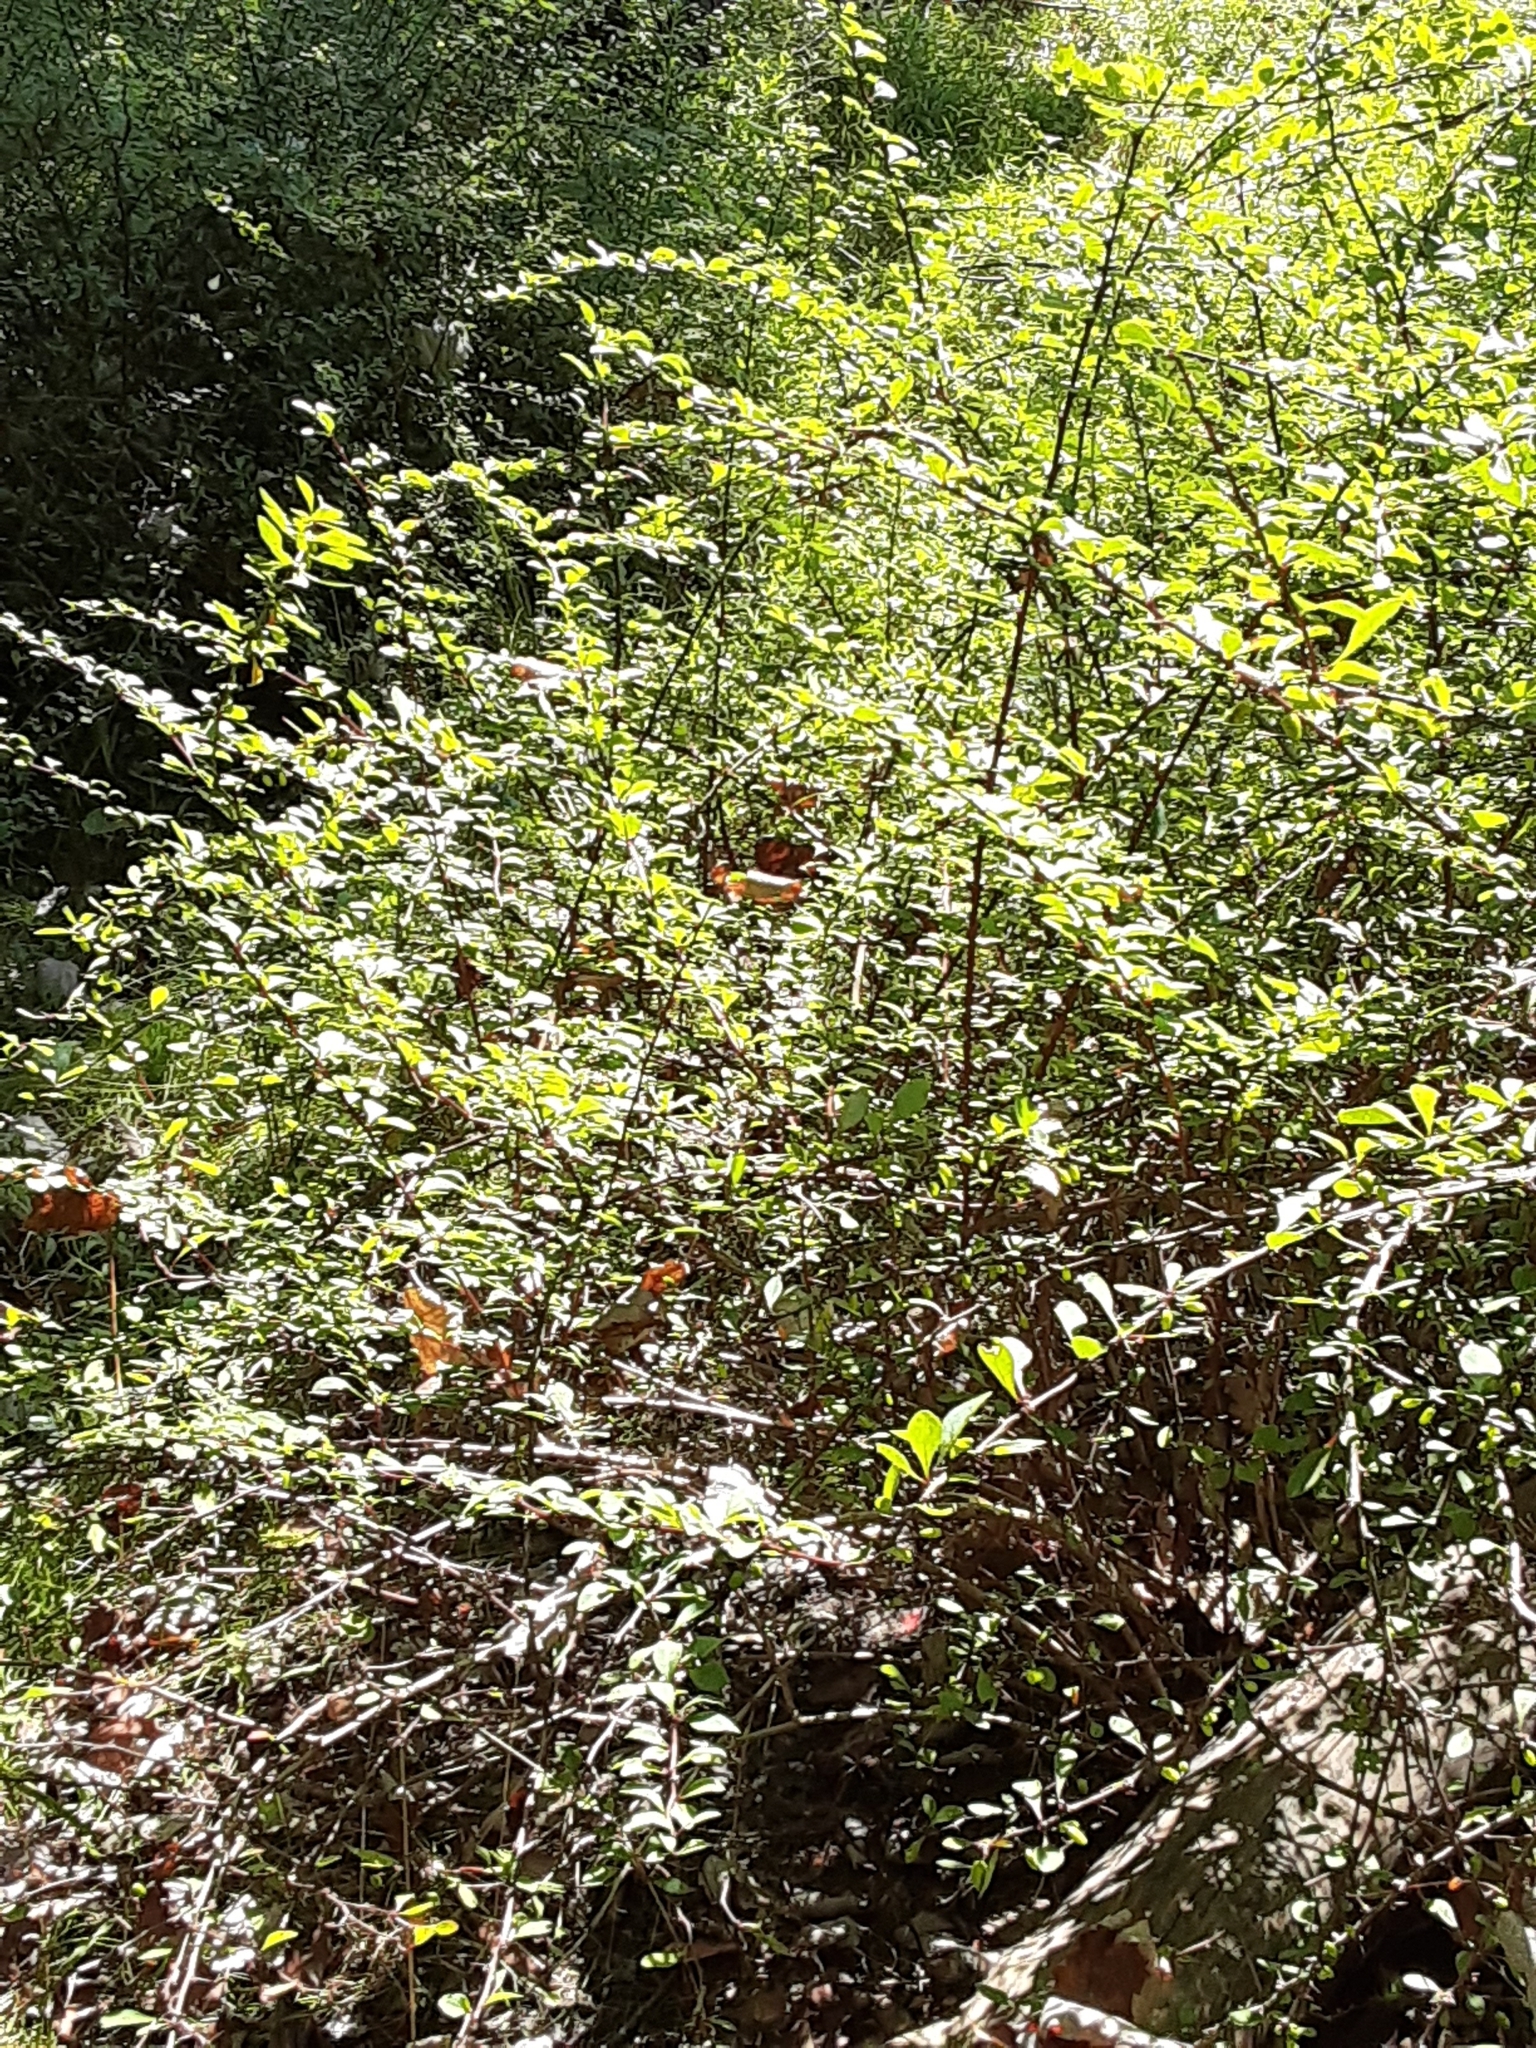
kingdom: Plantae
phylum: Tracheophyta
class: Magnoliopsida
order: Ranunculales
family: Berberidaceae
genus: Berberis
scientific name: Berberis thunbergii
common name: Japanese barberry
